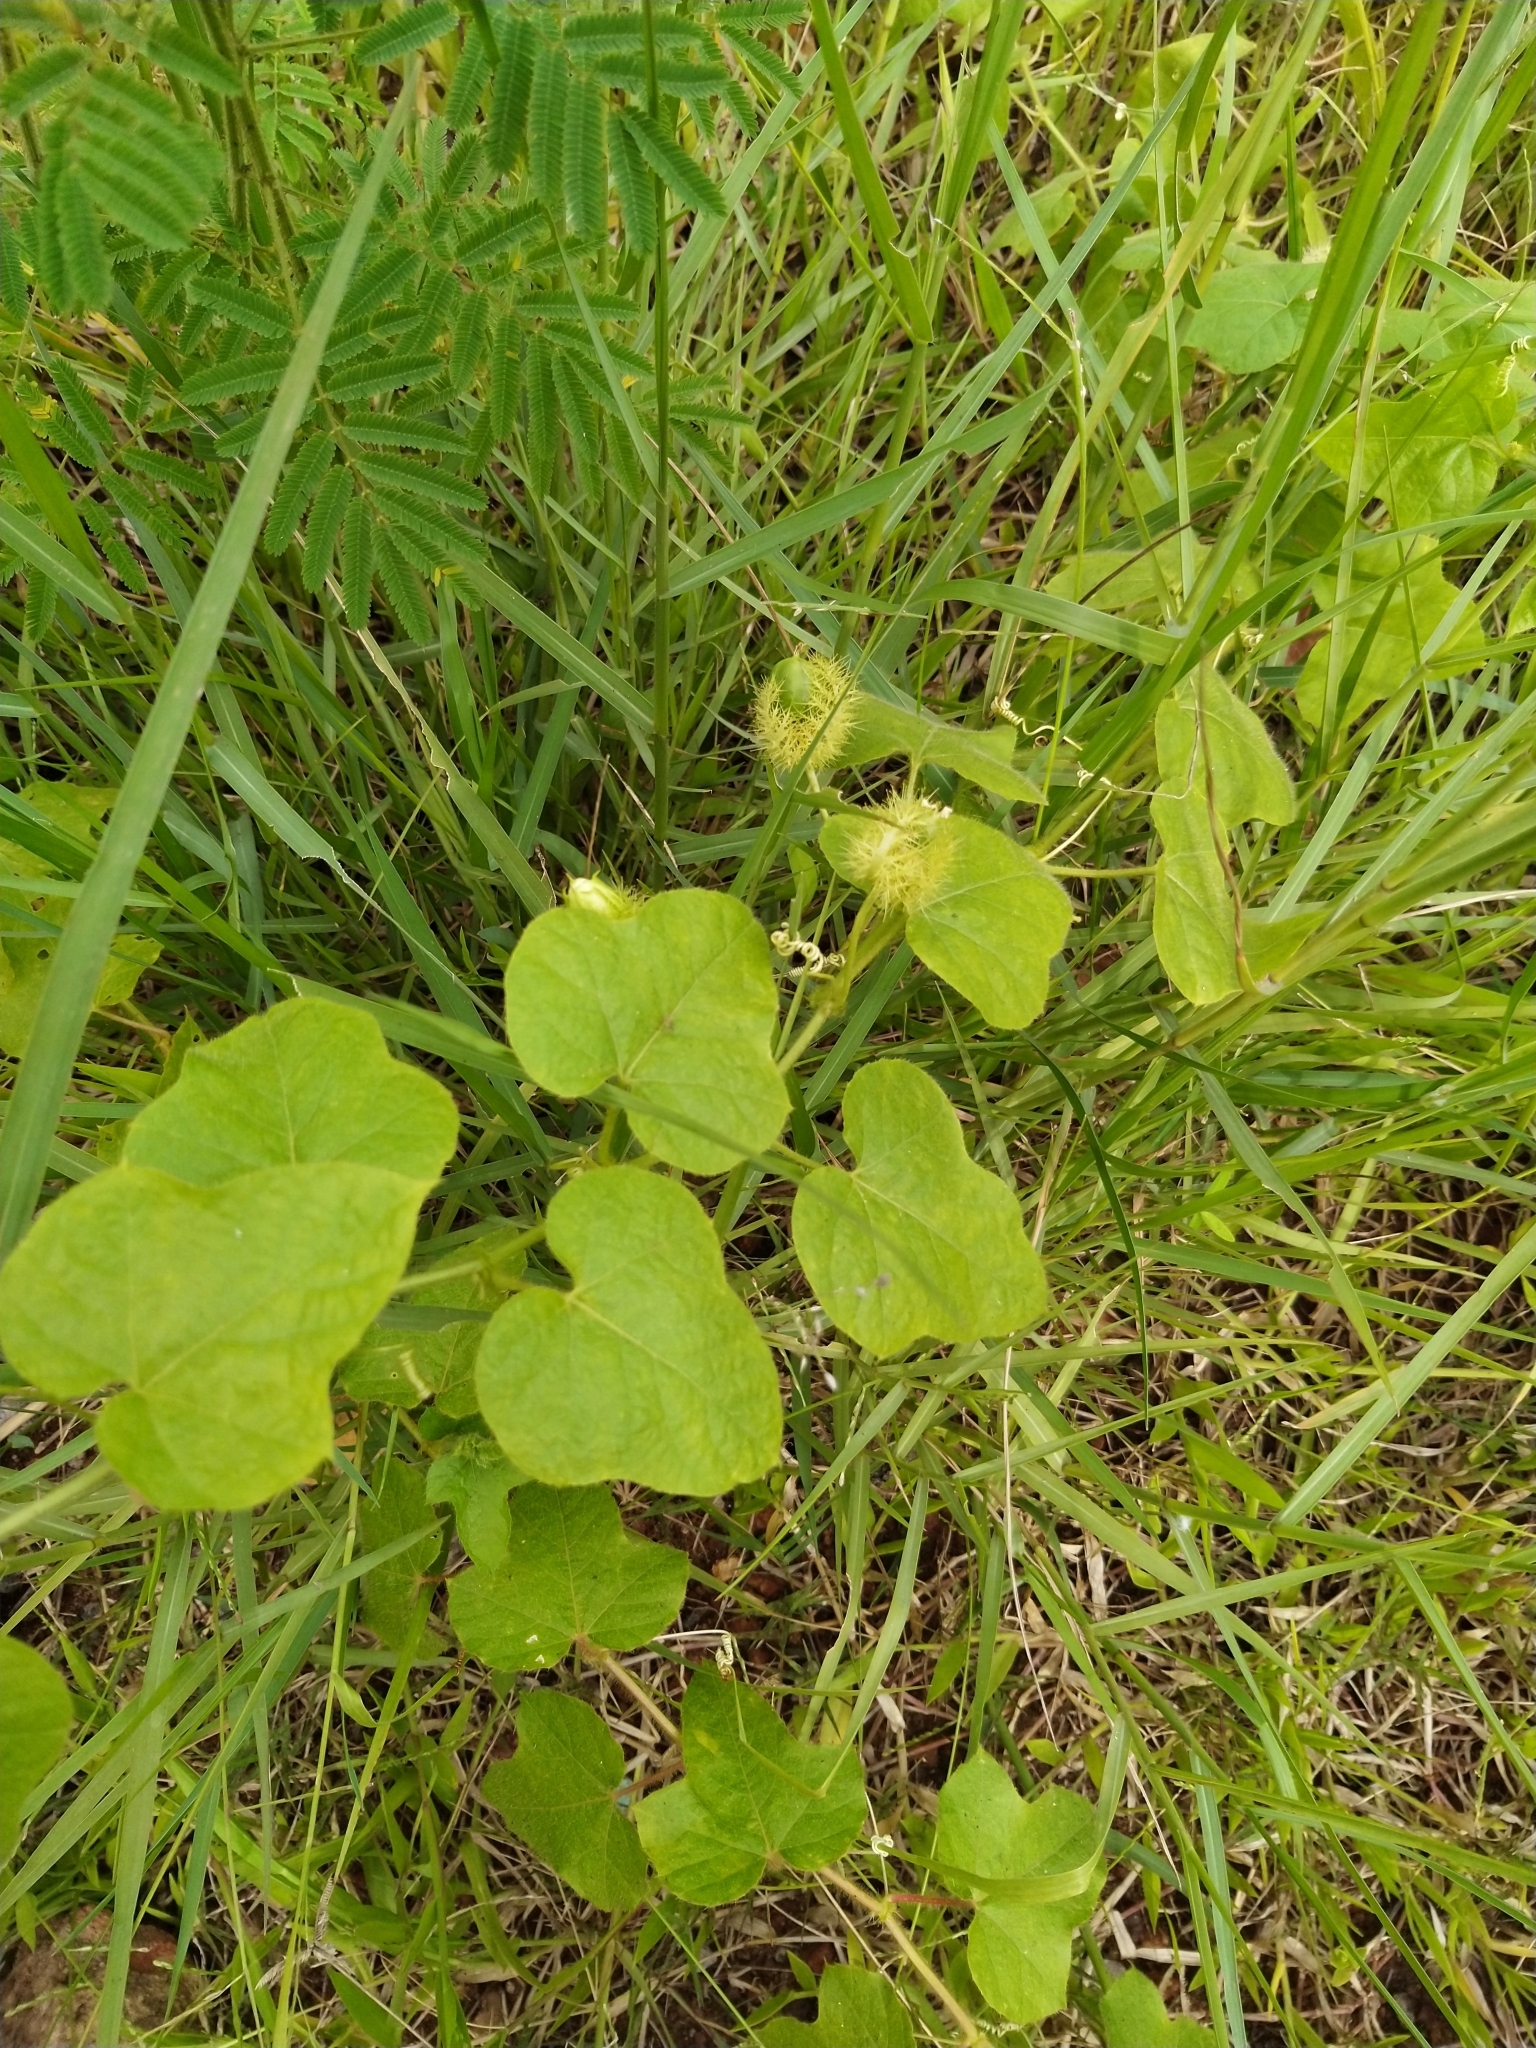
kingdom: Plantae
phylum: Tracheophyta
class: Magnoliopsida
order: Malpighiales
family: Passifloraceae
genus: Passiflora
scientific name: Passiflora foetida
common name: Fetid passionflower
